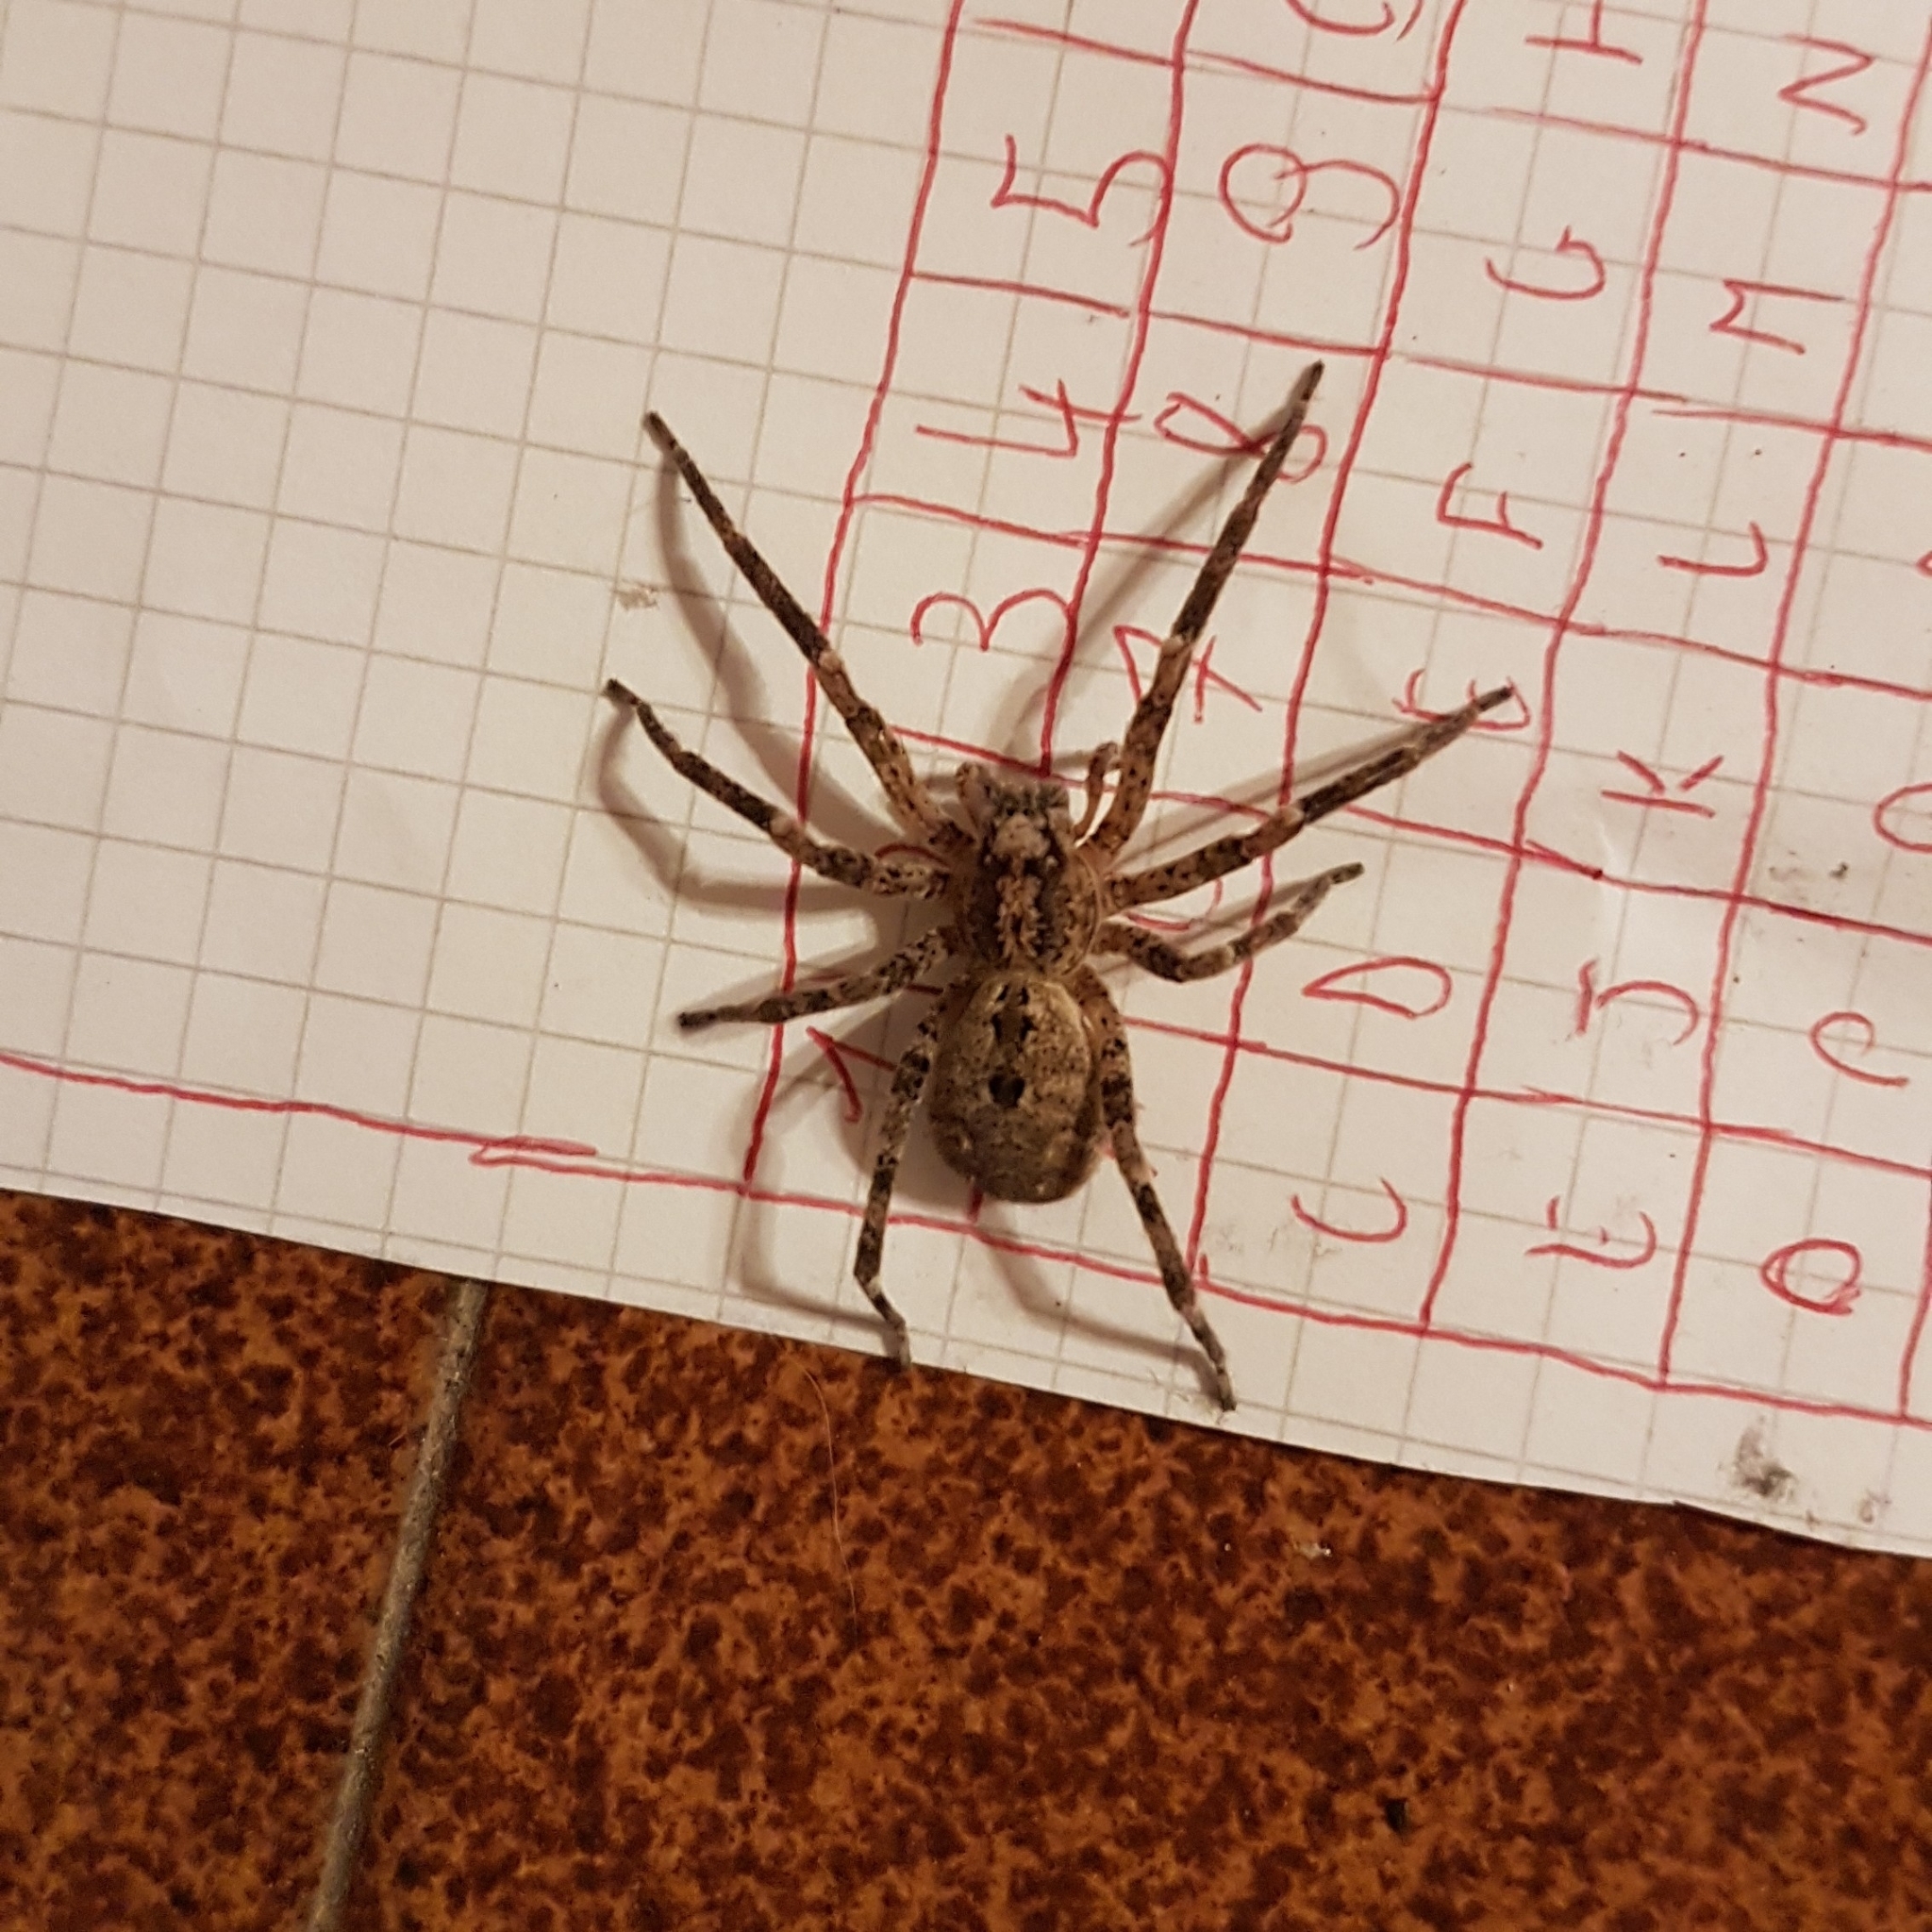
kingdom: Animalia
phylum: Arthropoda
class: Arachnida
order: Araneae
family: Zoropsidae
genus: Zoropsis
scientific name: Zoropsis spinimana
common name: Zoropsid spider
